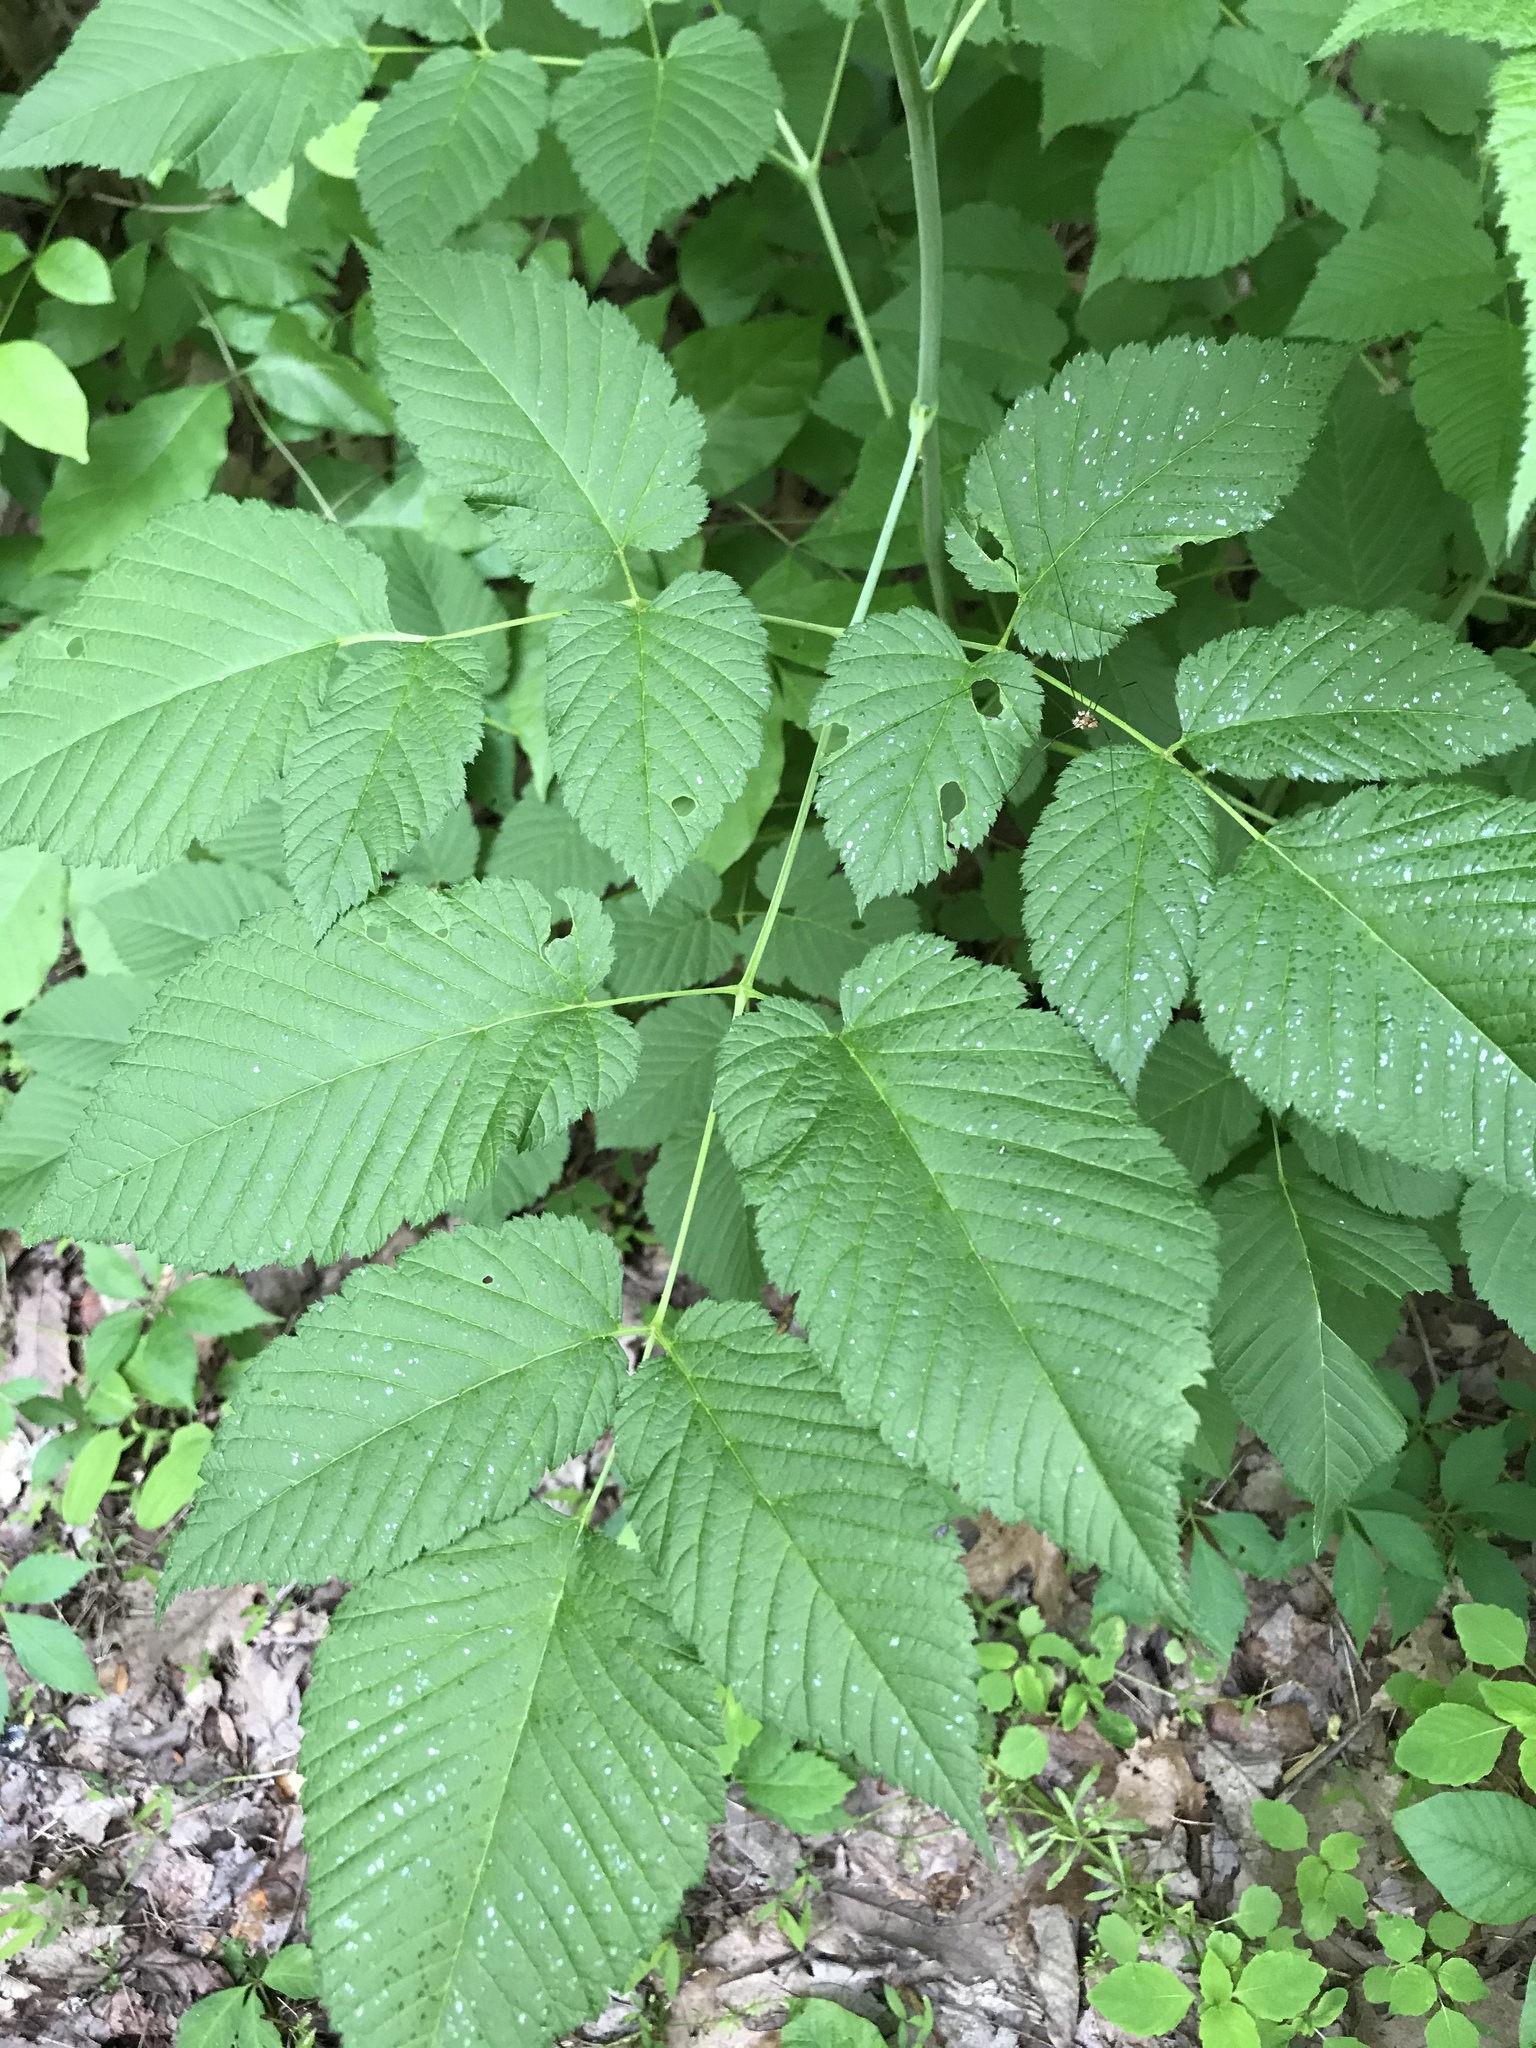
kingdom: Plantae
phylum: Tracheophyta
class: Magnoliopsida
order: Rosales
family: Rosaceae
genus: Aruncus
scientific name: Aruncus dioicus
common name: Buck's-beard
